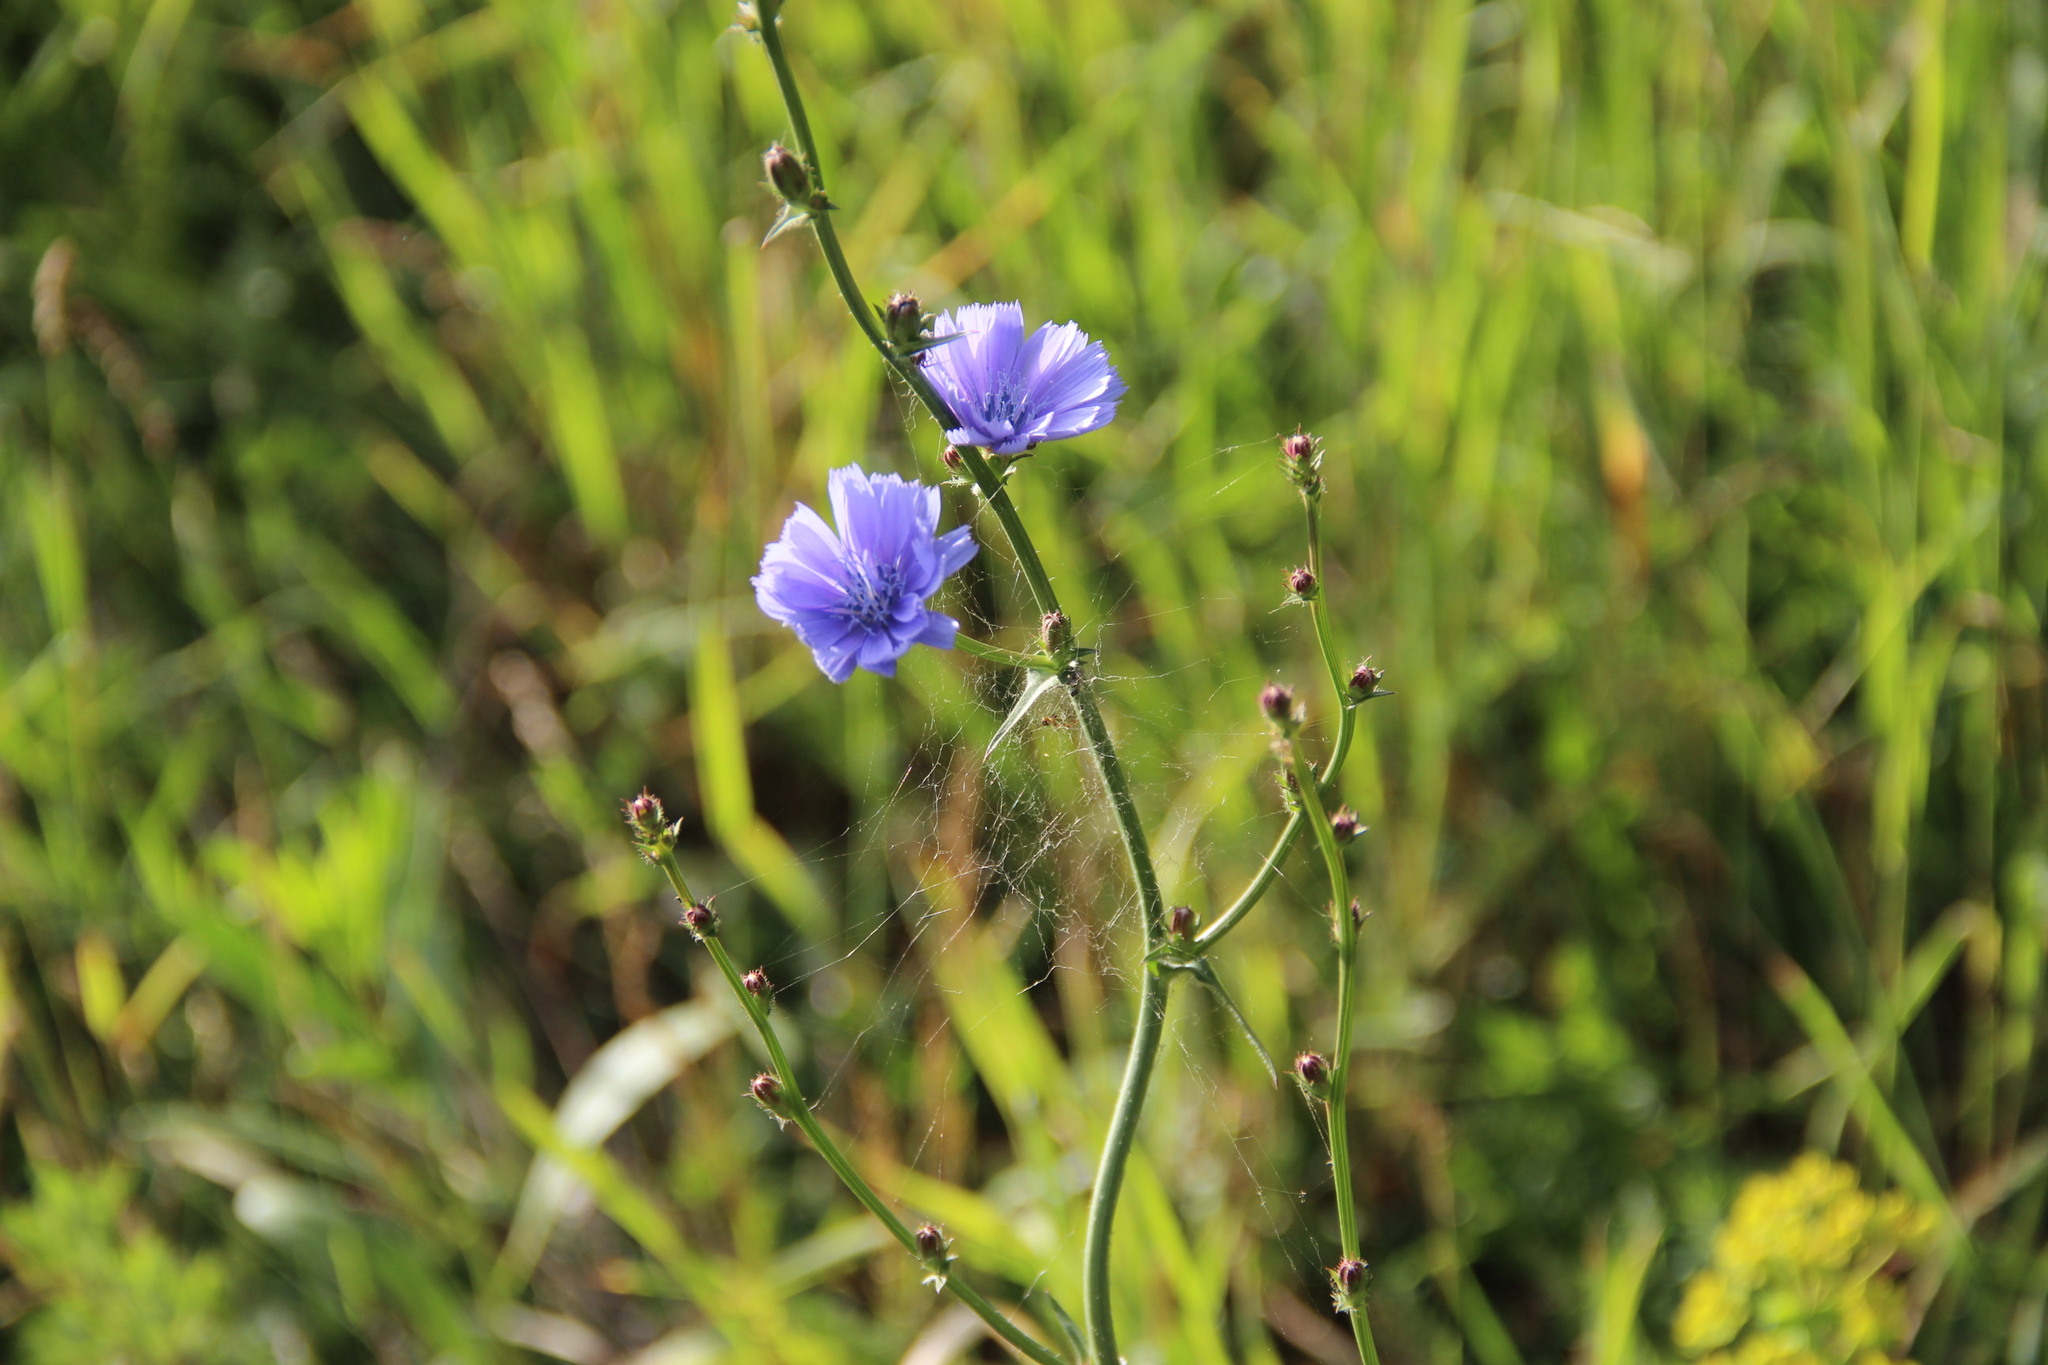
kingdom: Plantae
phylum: Tracheophyta
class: Magnoliopsida
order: Asterales
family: Asteraceae
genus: Cichorium
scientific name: Cichorium intybus
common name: Chicory
